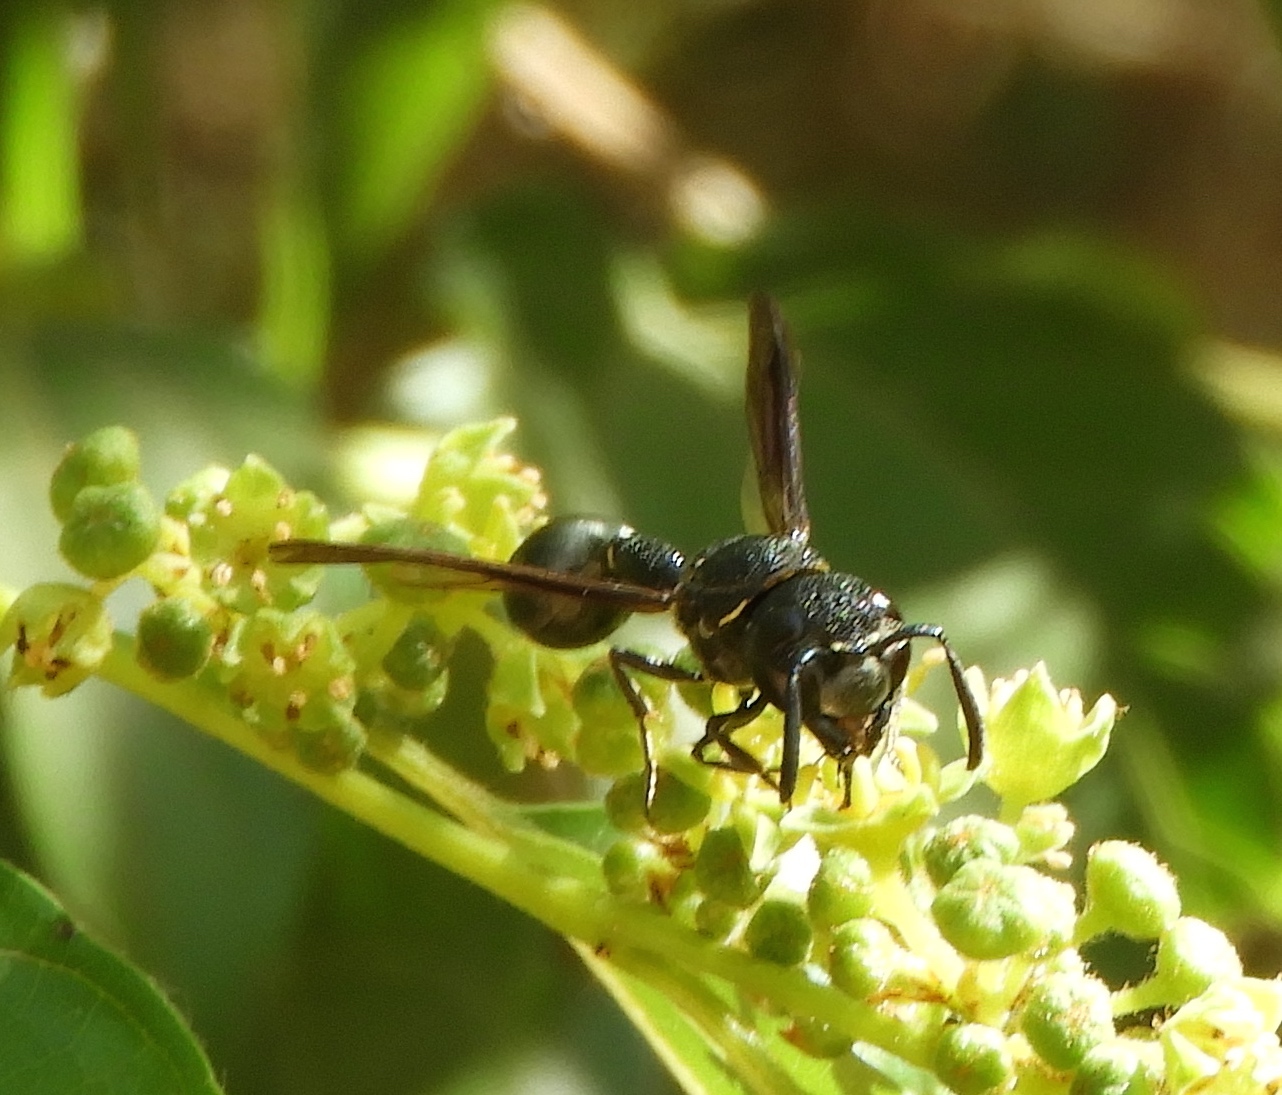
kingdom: Animalia
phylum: Arthropoda
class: Insecta
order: Hymenoptera
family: Eumenidae
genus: Zethus
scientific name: Zethus nigricornis
